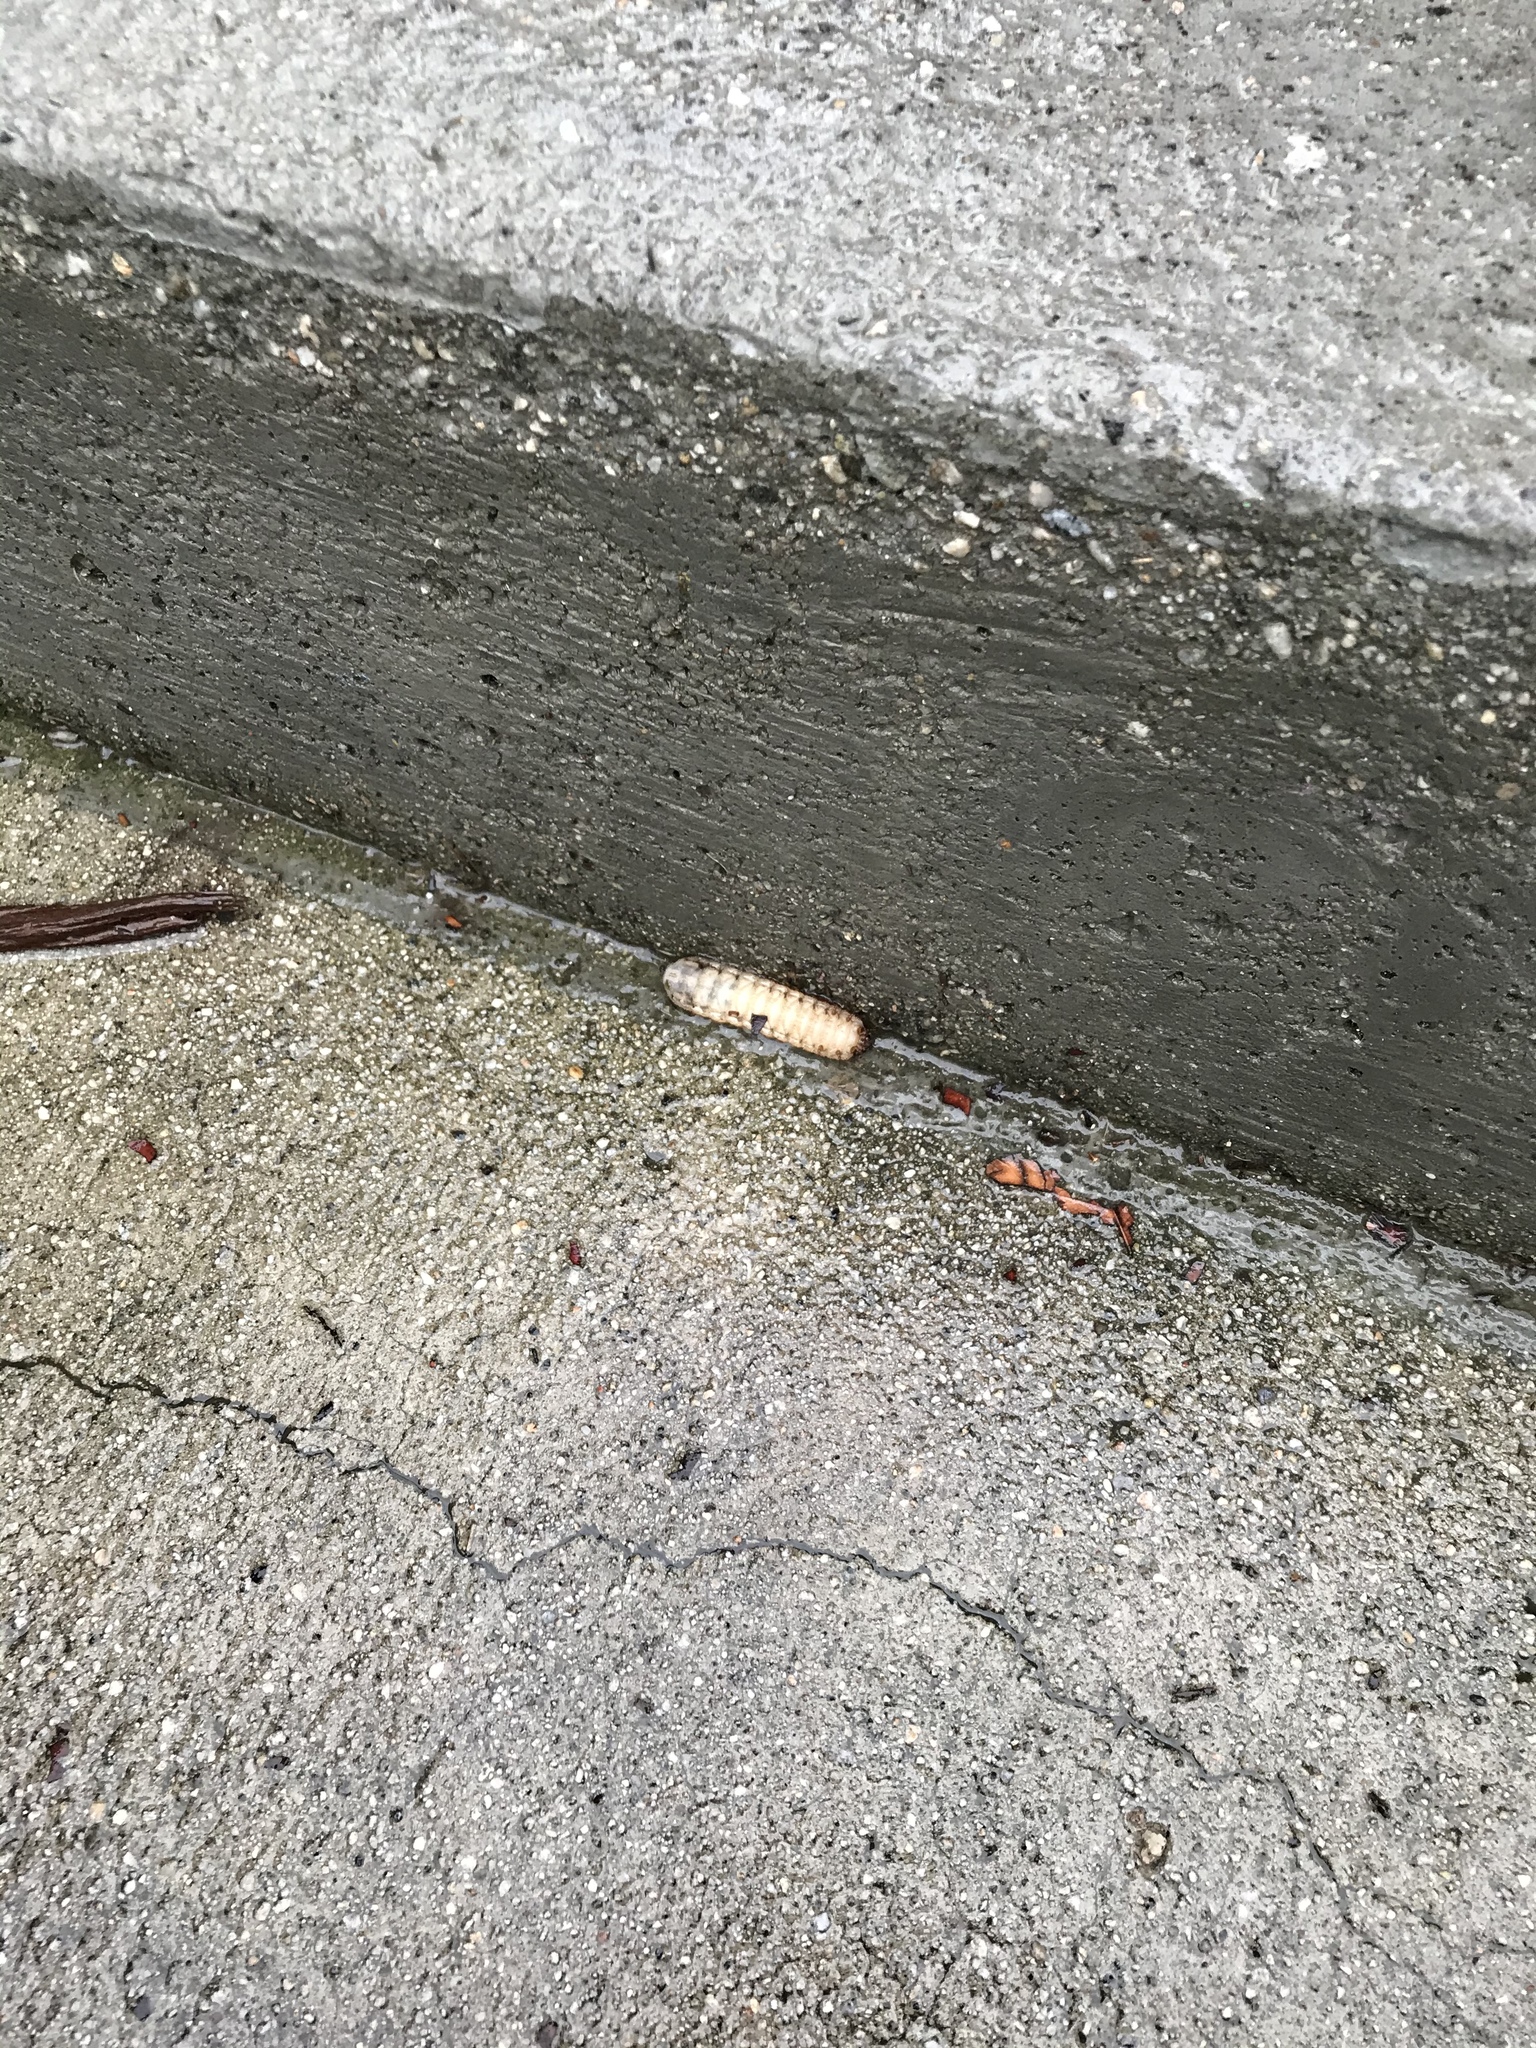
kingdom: Animalia
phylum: Arthropoda
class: Insecta
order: Coleoptera
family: Scarabaeidae
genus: Cotinis
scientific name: Cotinis mutabilis
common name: Figeater beetle
